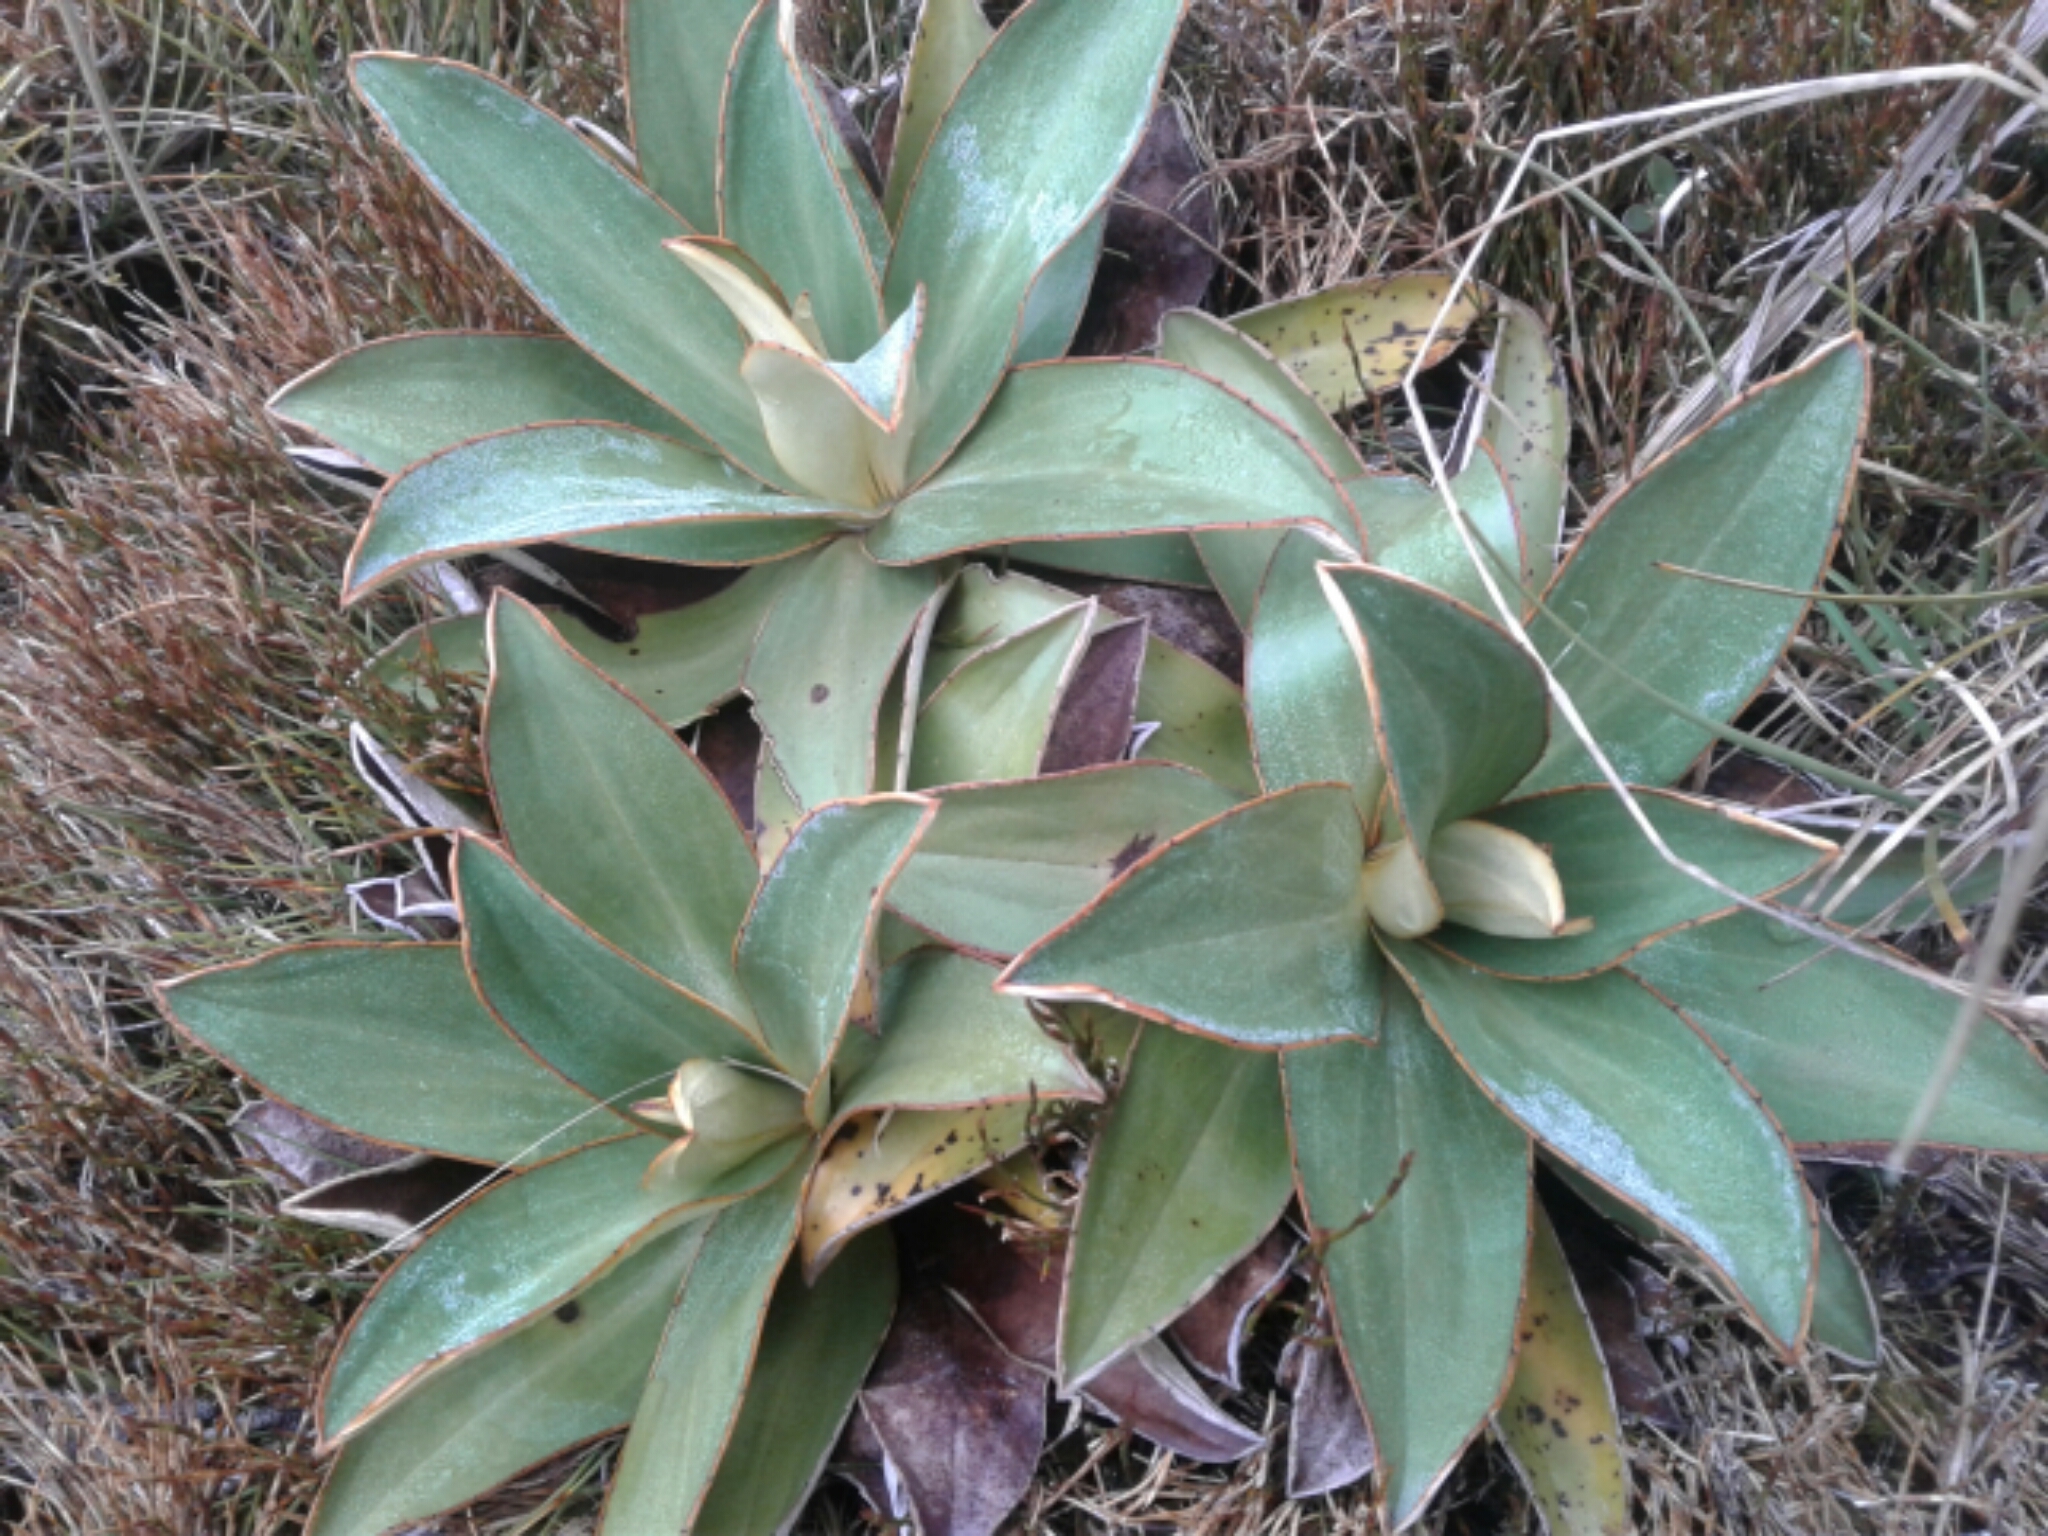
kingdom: Plantae
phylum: Tracheophyta
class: Magnoliopsida
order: Asterales
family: Asteraceae
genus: Celmisia
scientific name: Celmisia dallii
